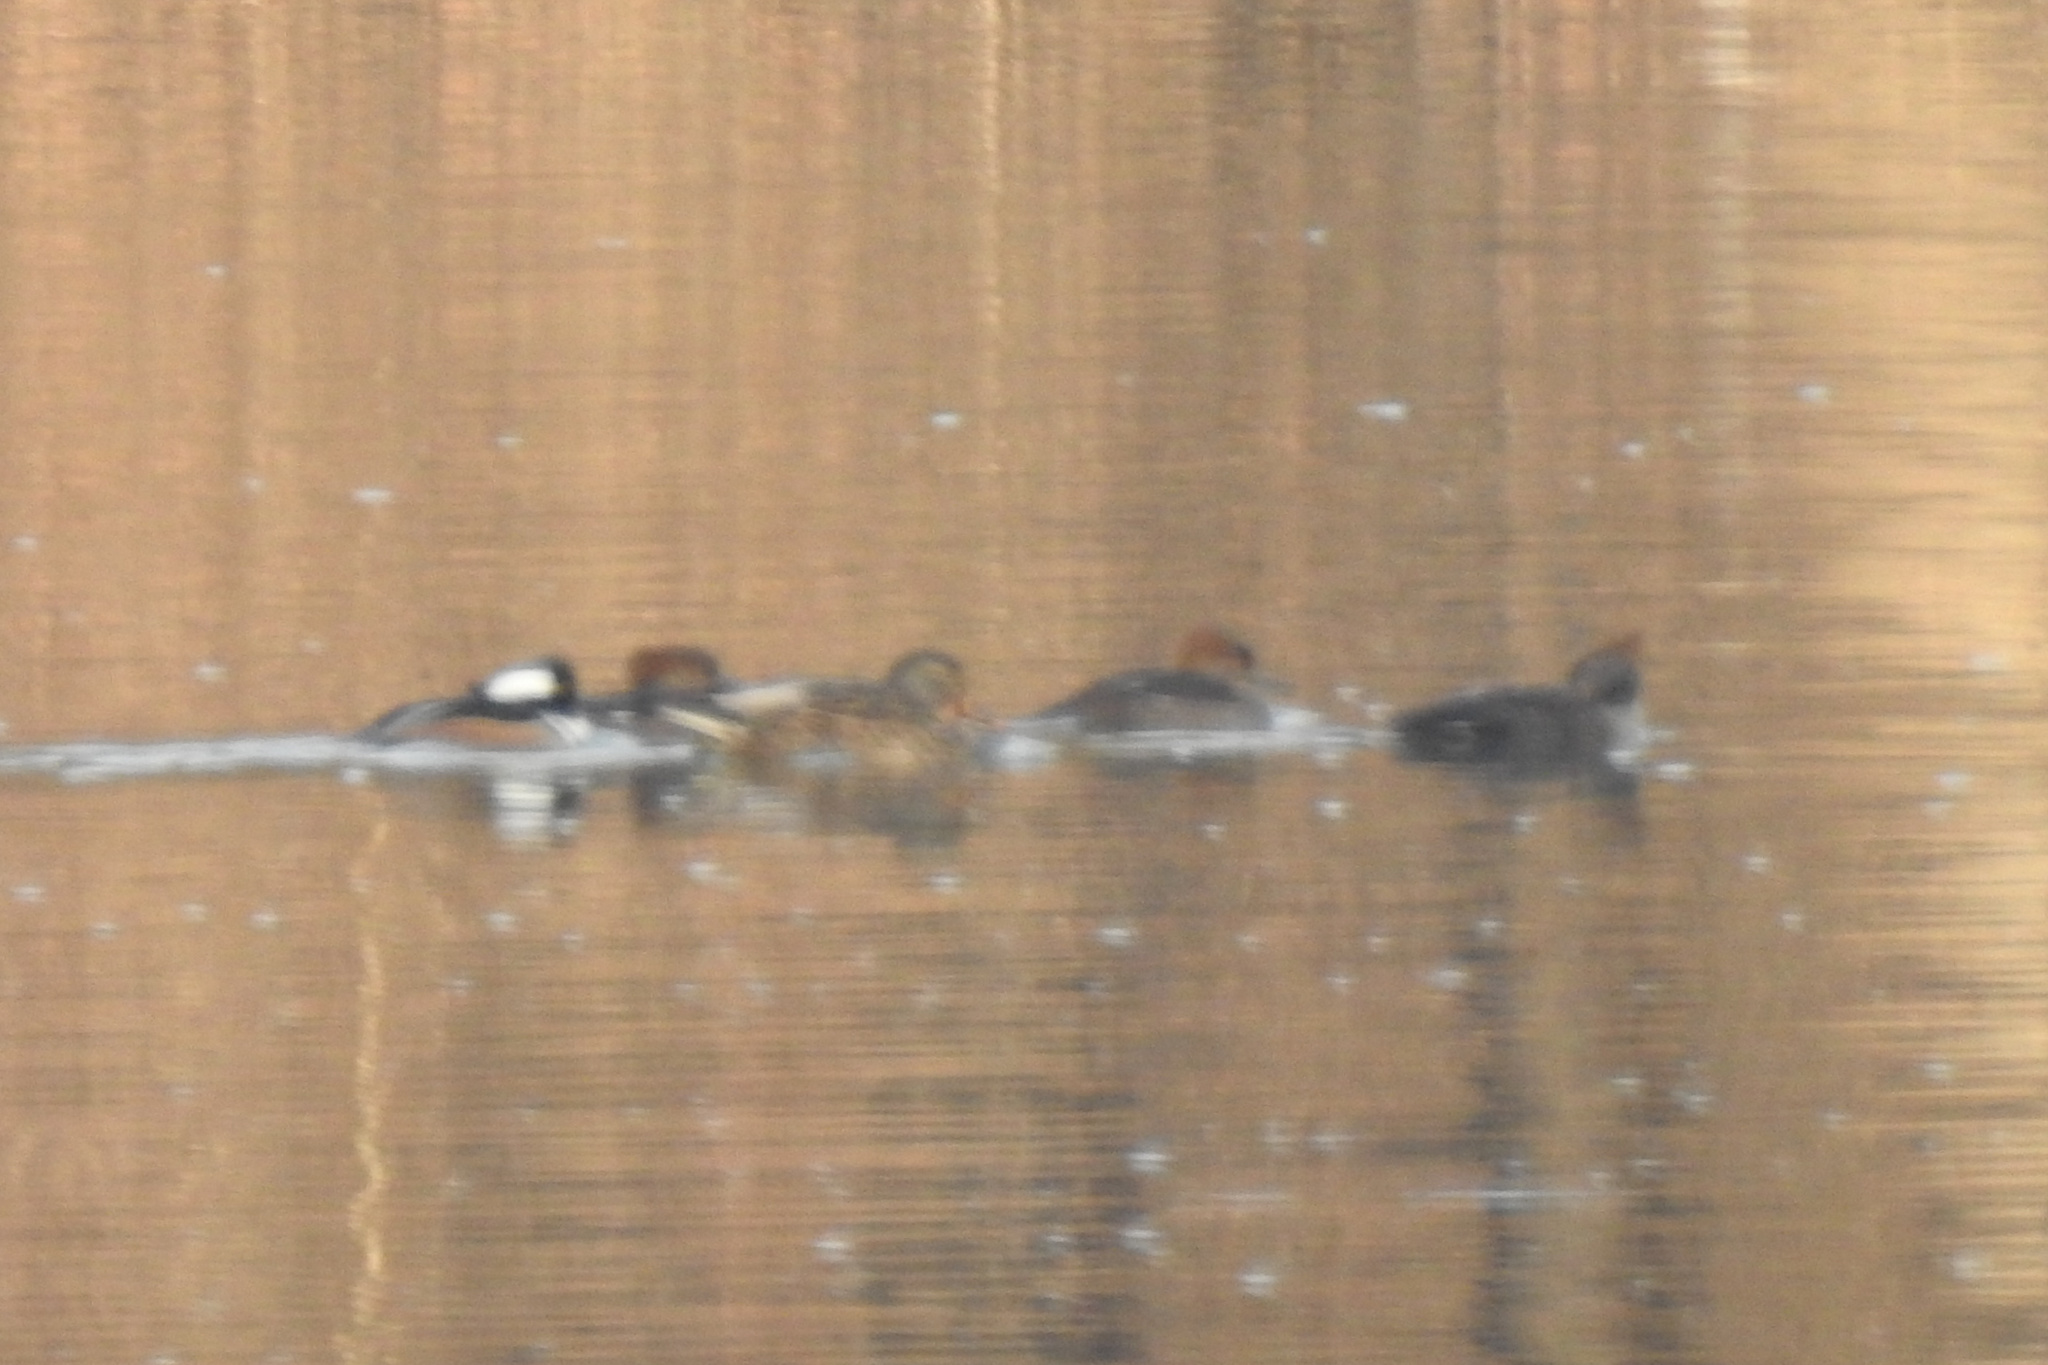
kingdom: Animalia
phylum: Chordata
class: Aves
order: Anseriformes
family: Anatidae
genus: Lophodytes
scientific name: Lophodytes cucullatus
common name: Hooded merganser
